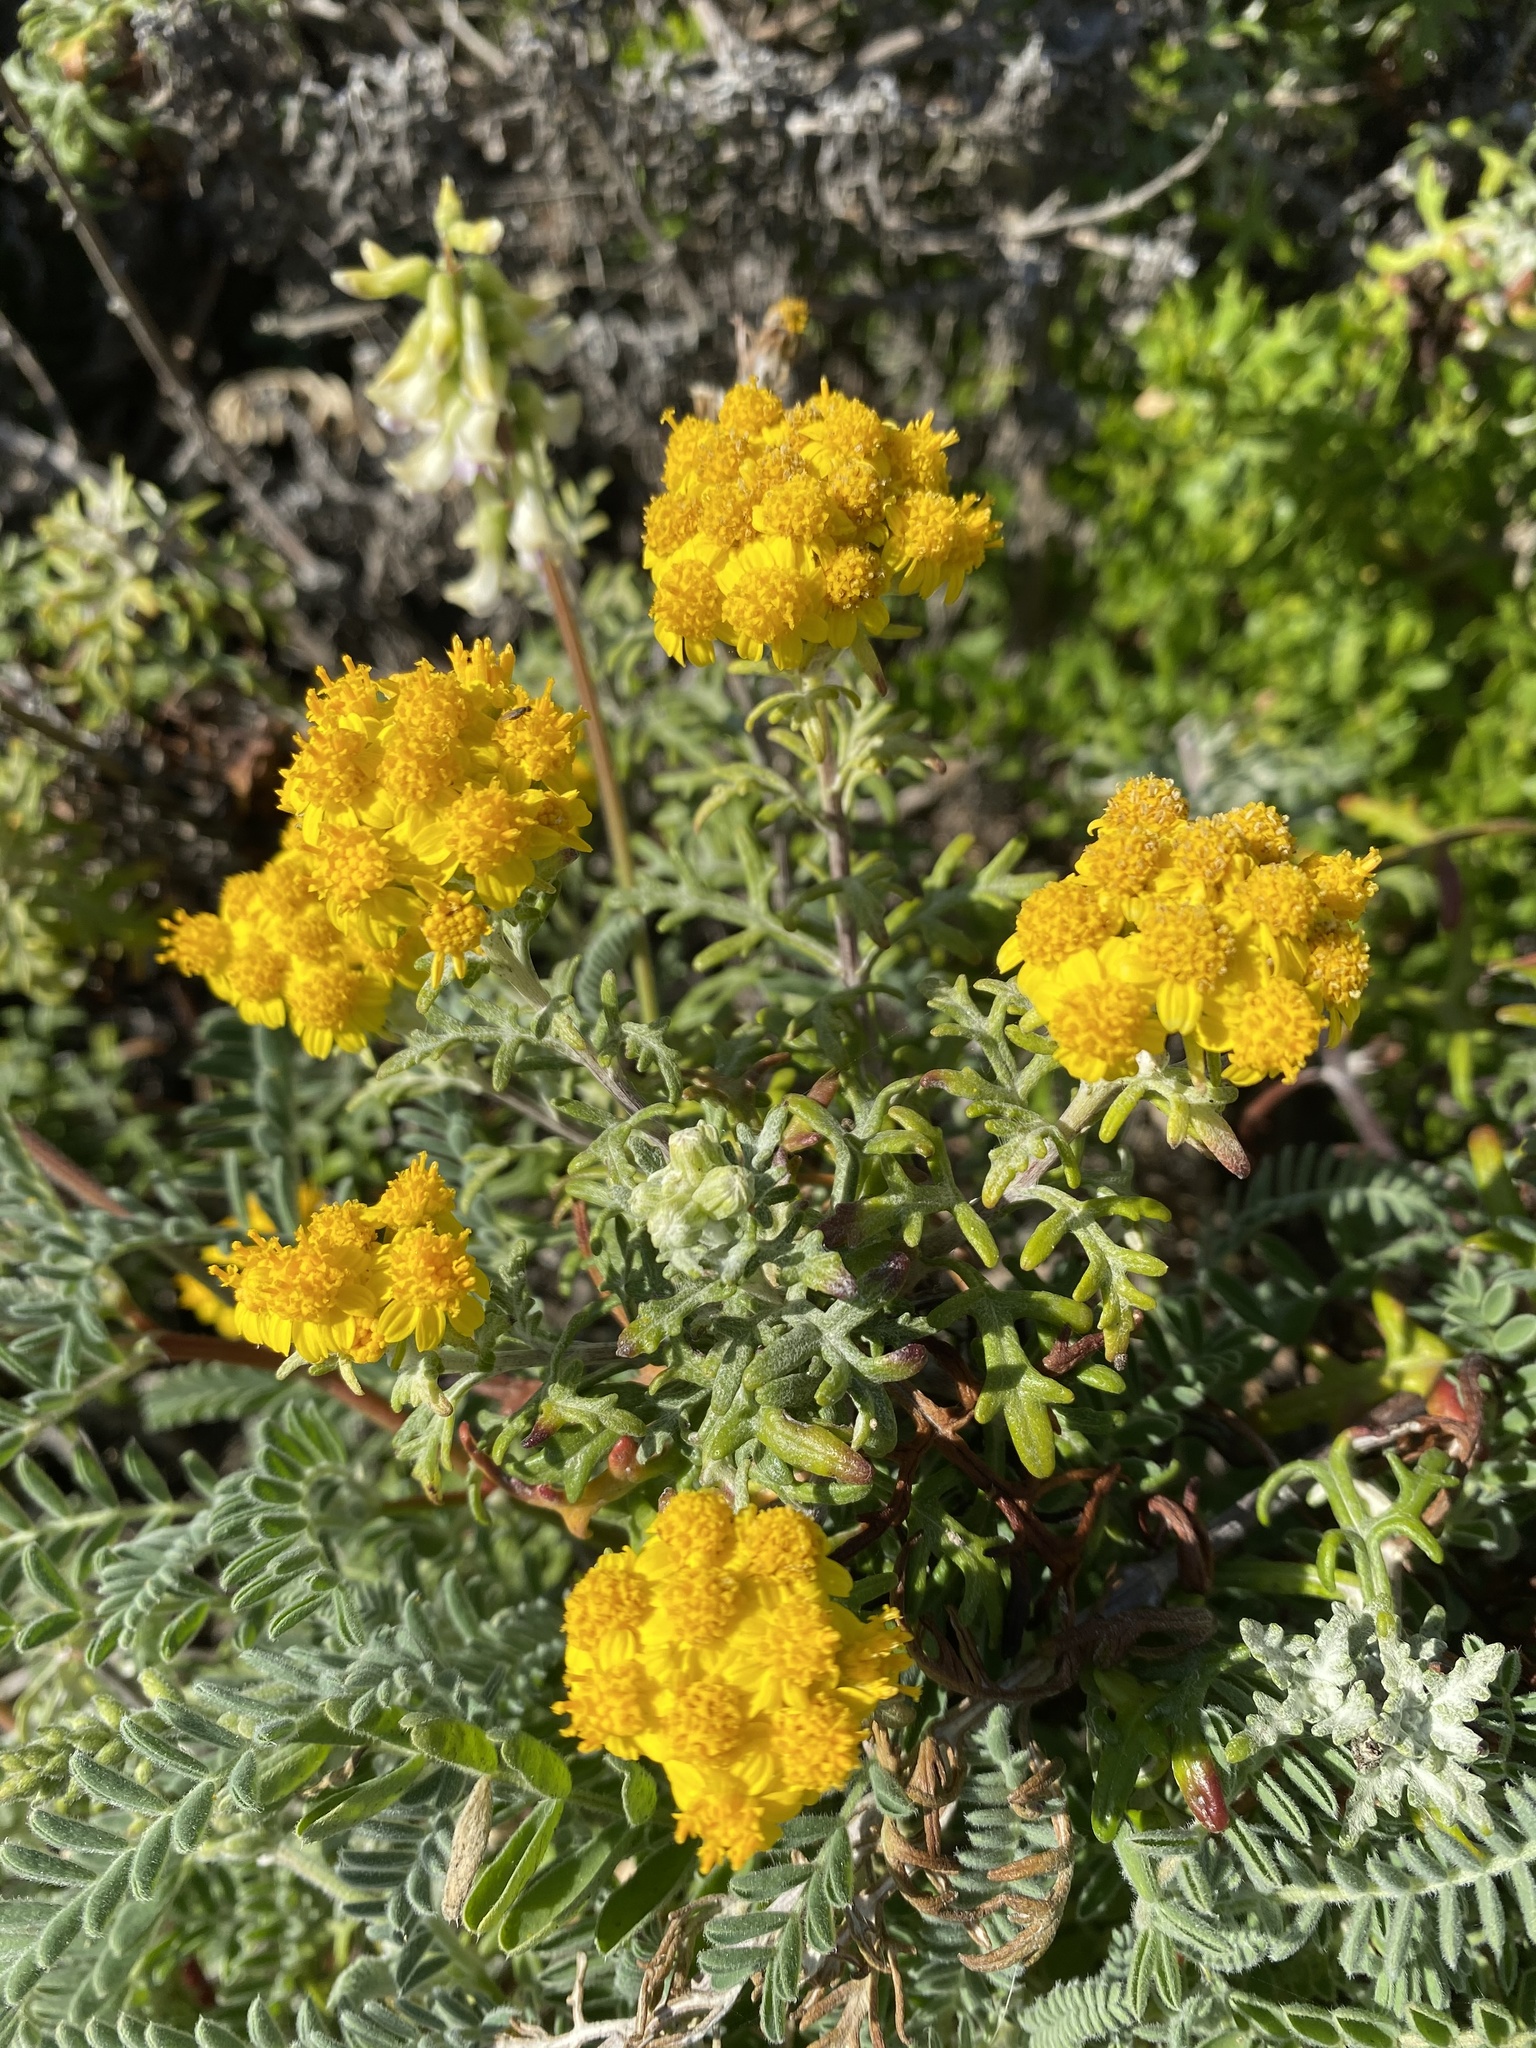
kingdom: Plantae
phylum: Tracheophyta
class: Magnoliopsida
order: Asterales
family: Asteraceae
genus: Eriophyllum
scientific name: Eriophyllum staechadifolium
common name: Lizardtail
